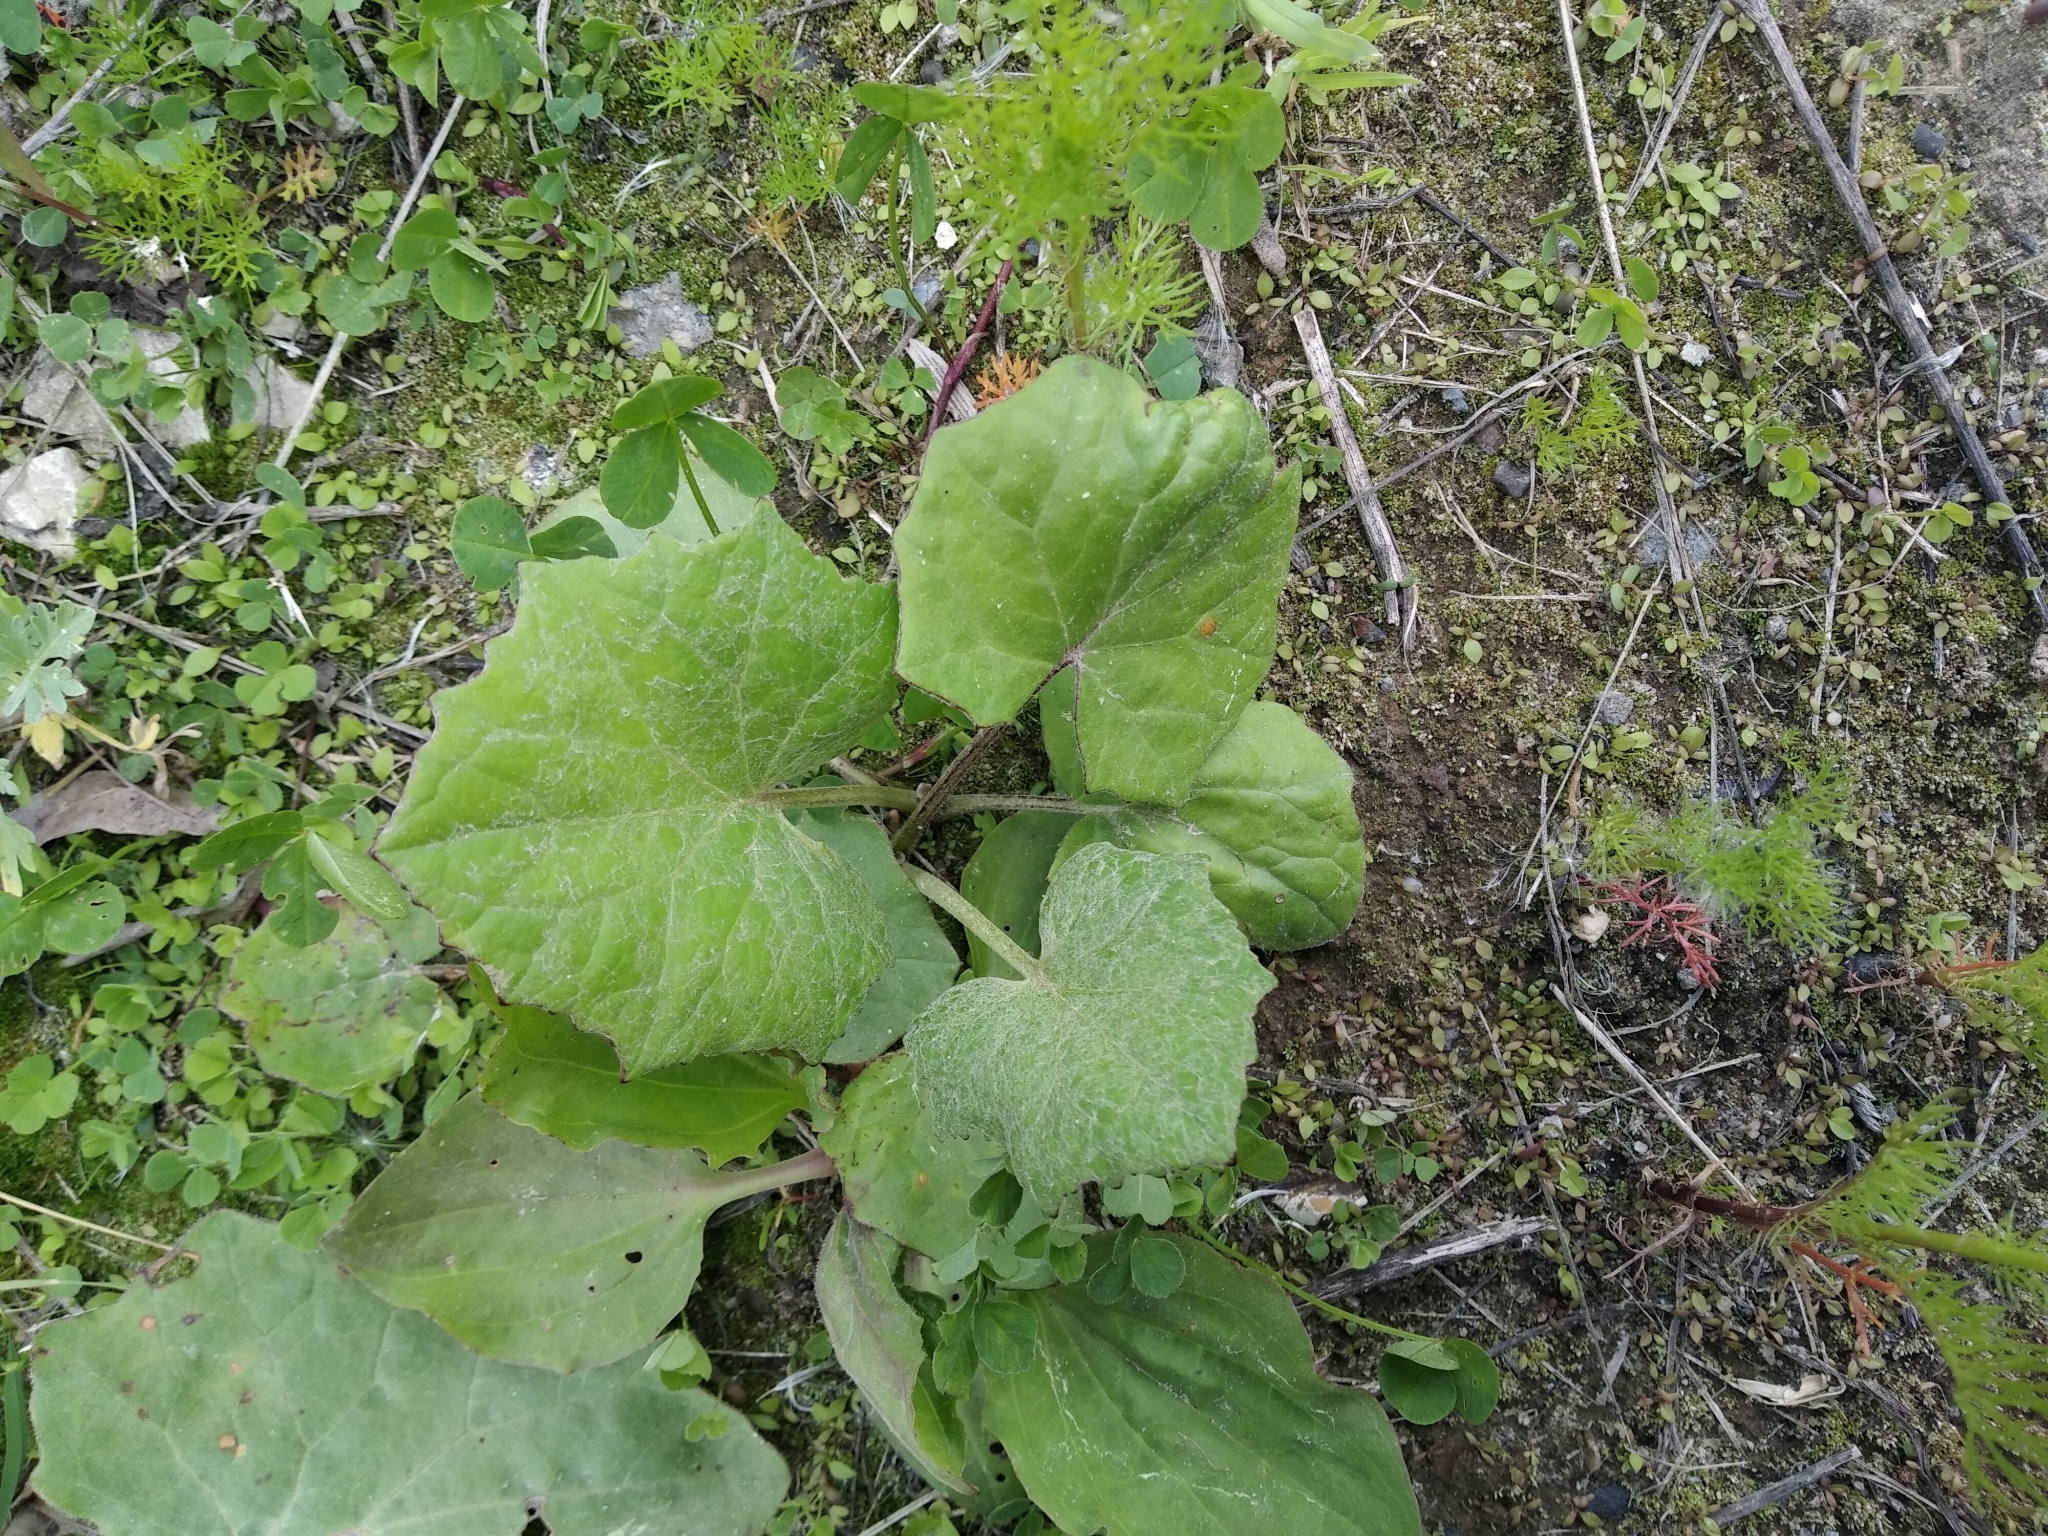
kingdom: Plantae
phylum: Tracheophyta
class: Magnoliopsida
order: Asterales
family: Asteraceae
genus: Tussilago
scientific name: Tussilago farfara
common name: Coltsfoot
